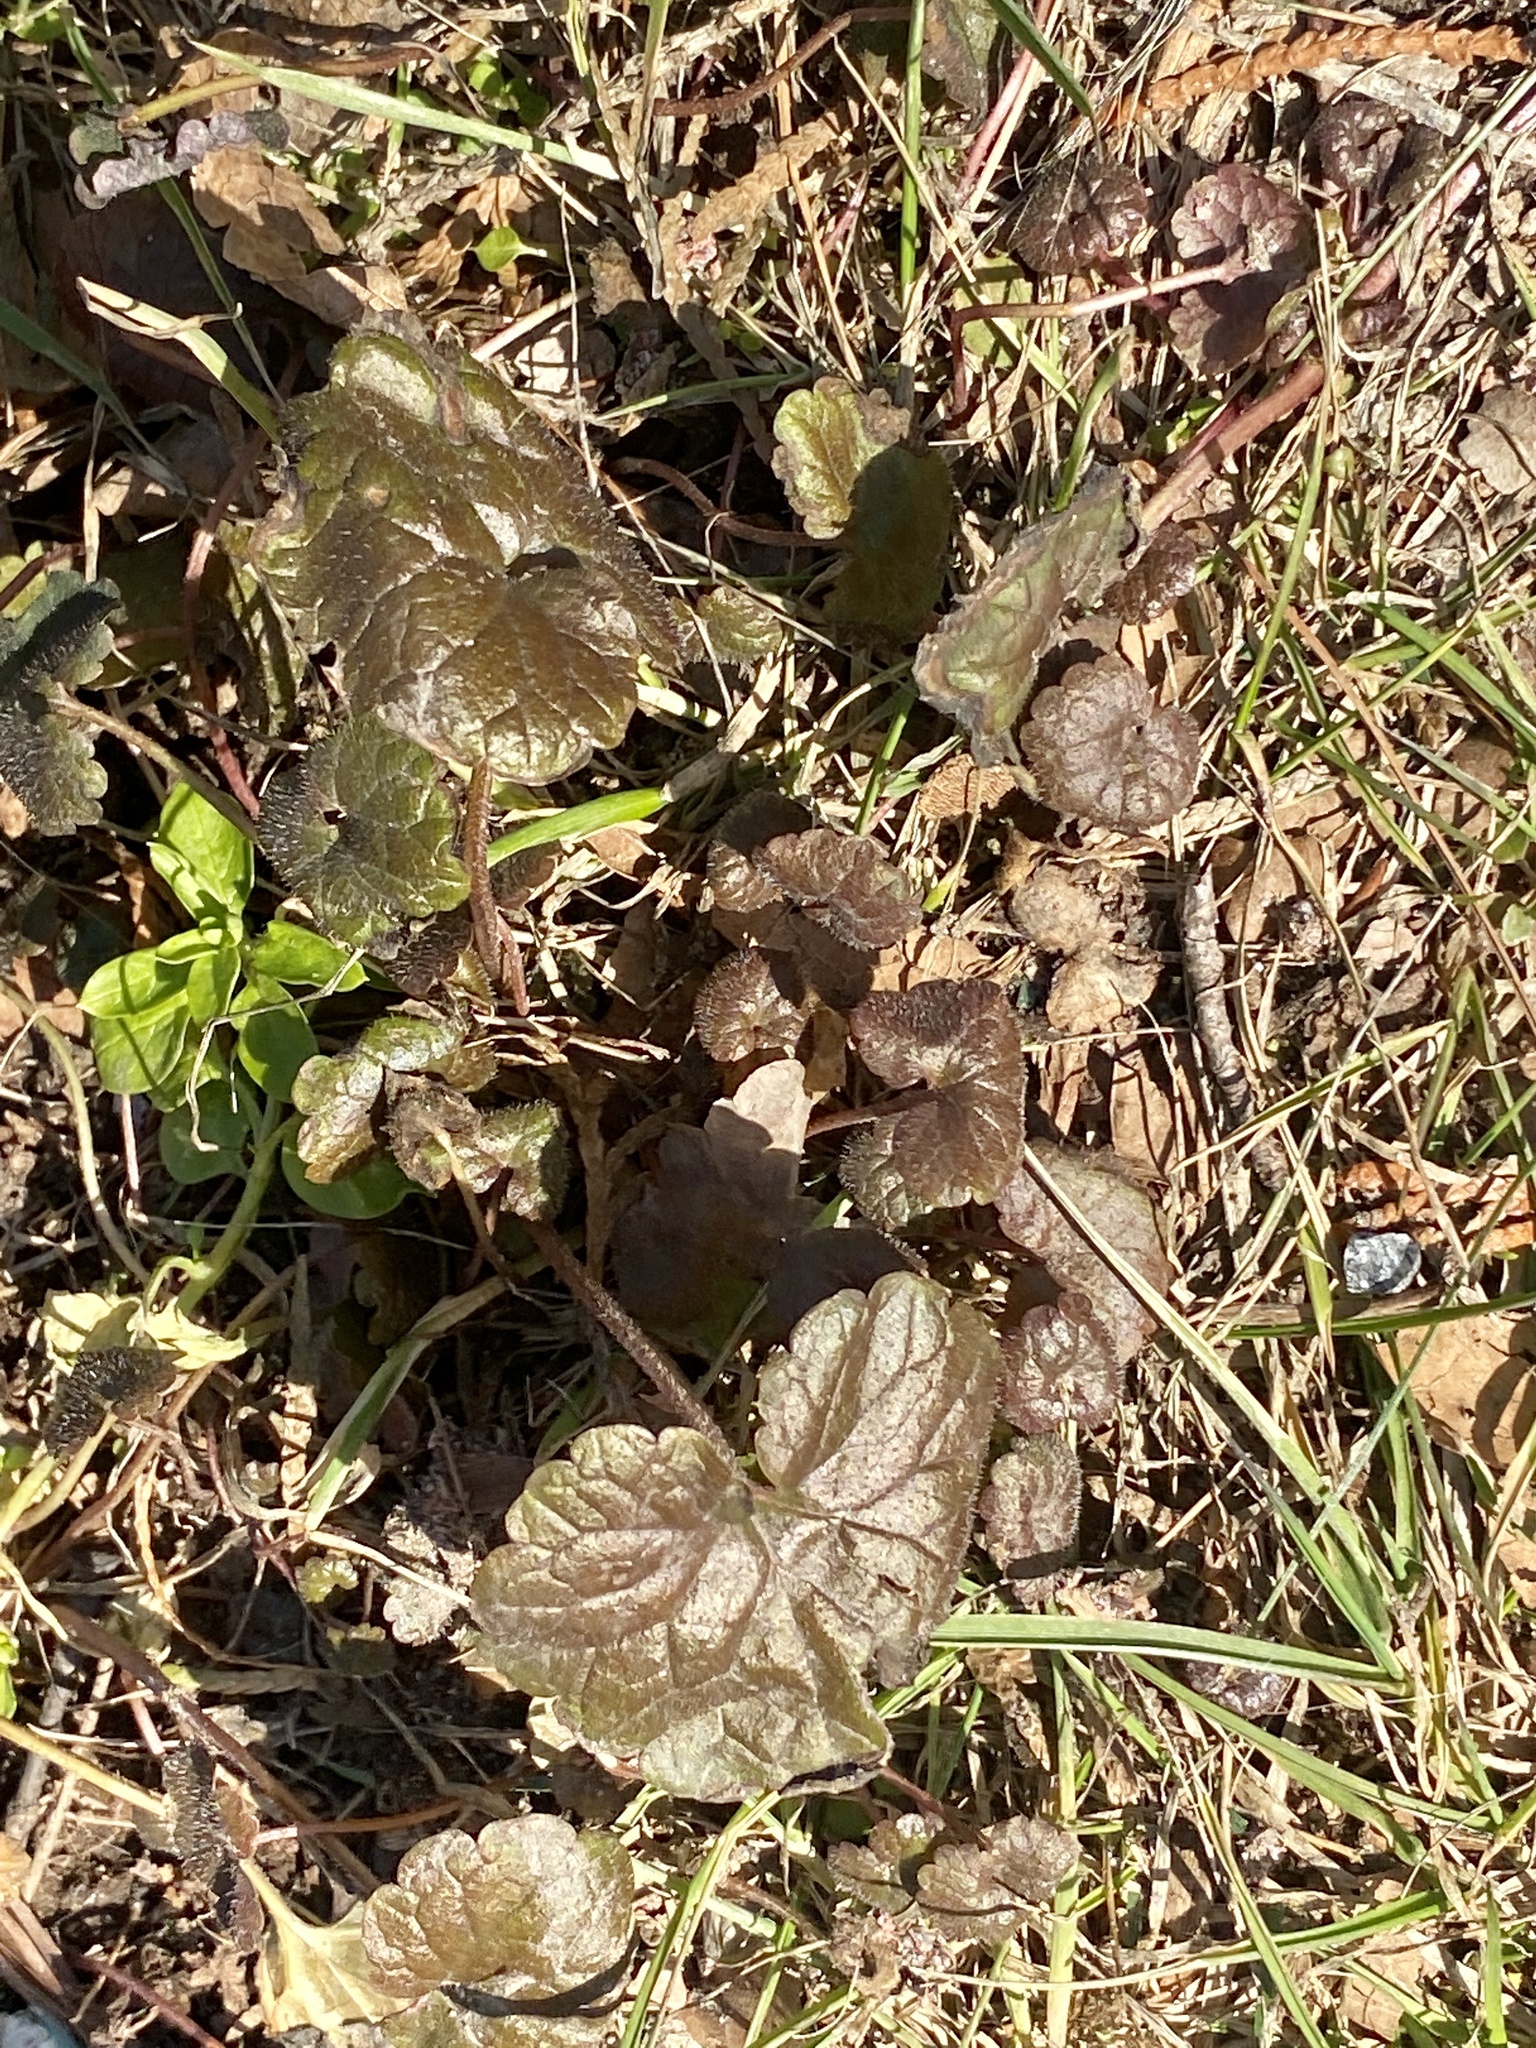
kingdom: Plantae
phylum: Tracheophyta
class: Magnoliopsida
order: Lamiales
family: Lamiaceae
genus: Glechoma
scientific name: Glechoma hederacea
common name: Ground ivy
